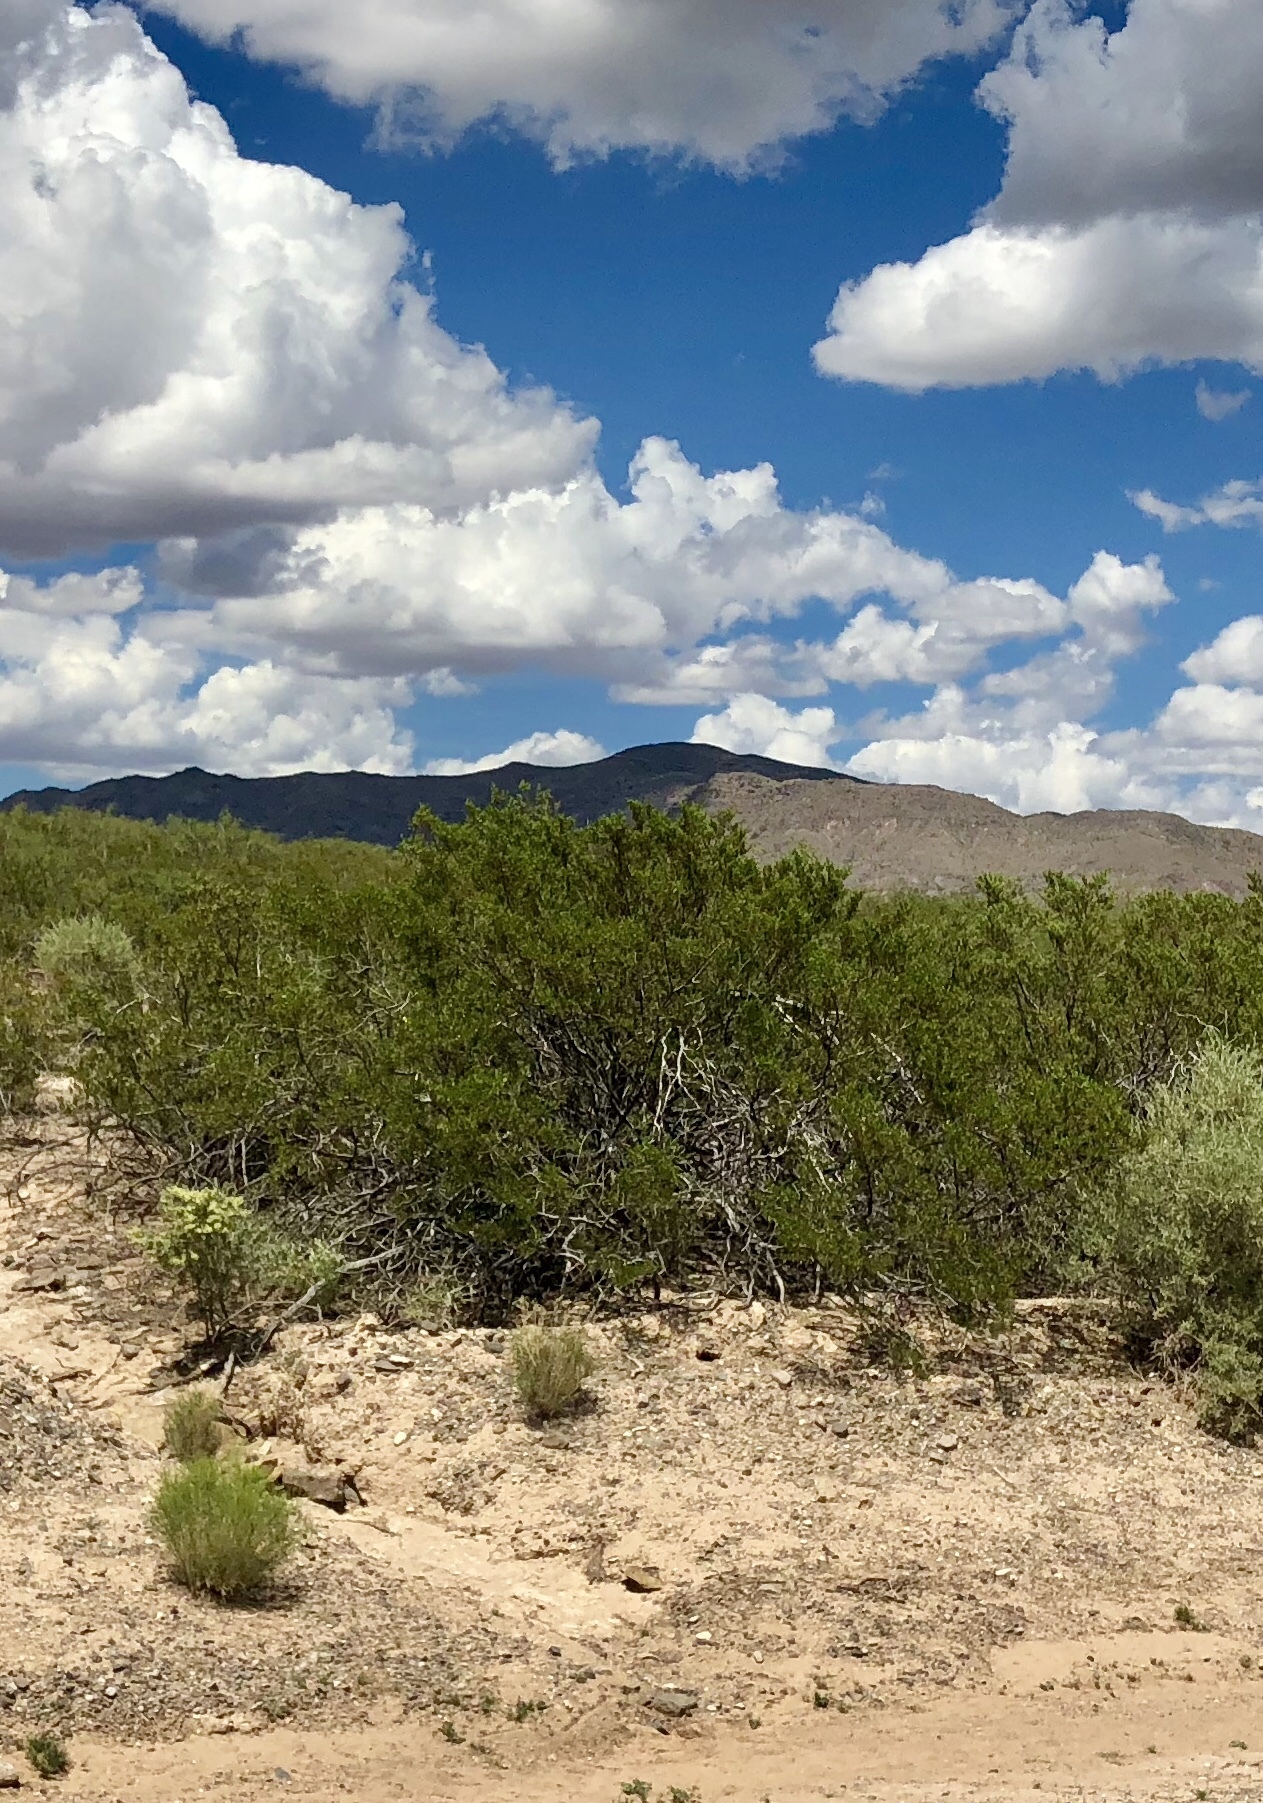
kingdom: Plantae
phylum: Tracheophyta
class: Magnoliopsida
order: Zygophyllales
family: Zygophyllaceae
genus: Larrea
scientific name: Larrea tridentata
